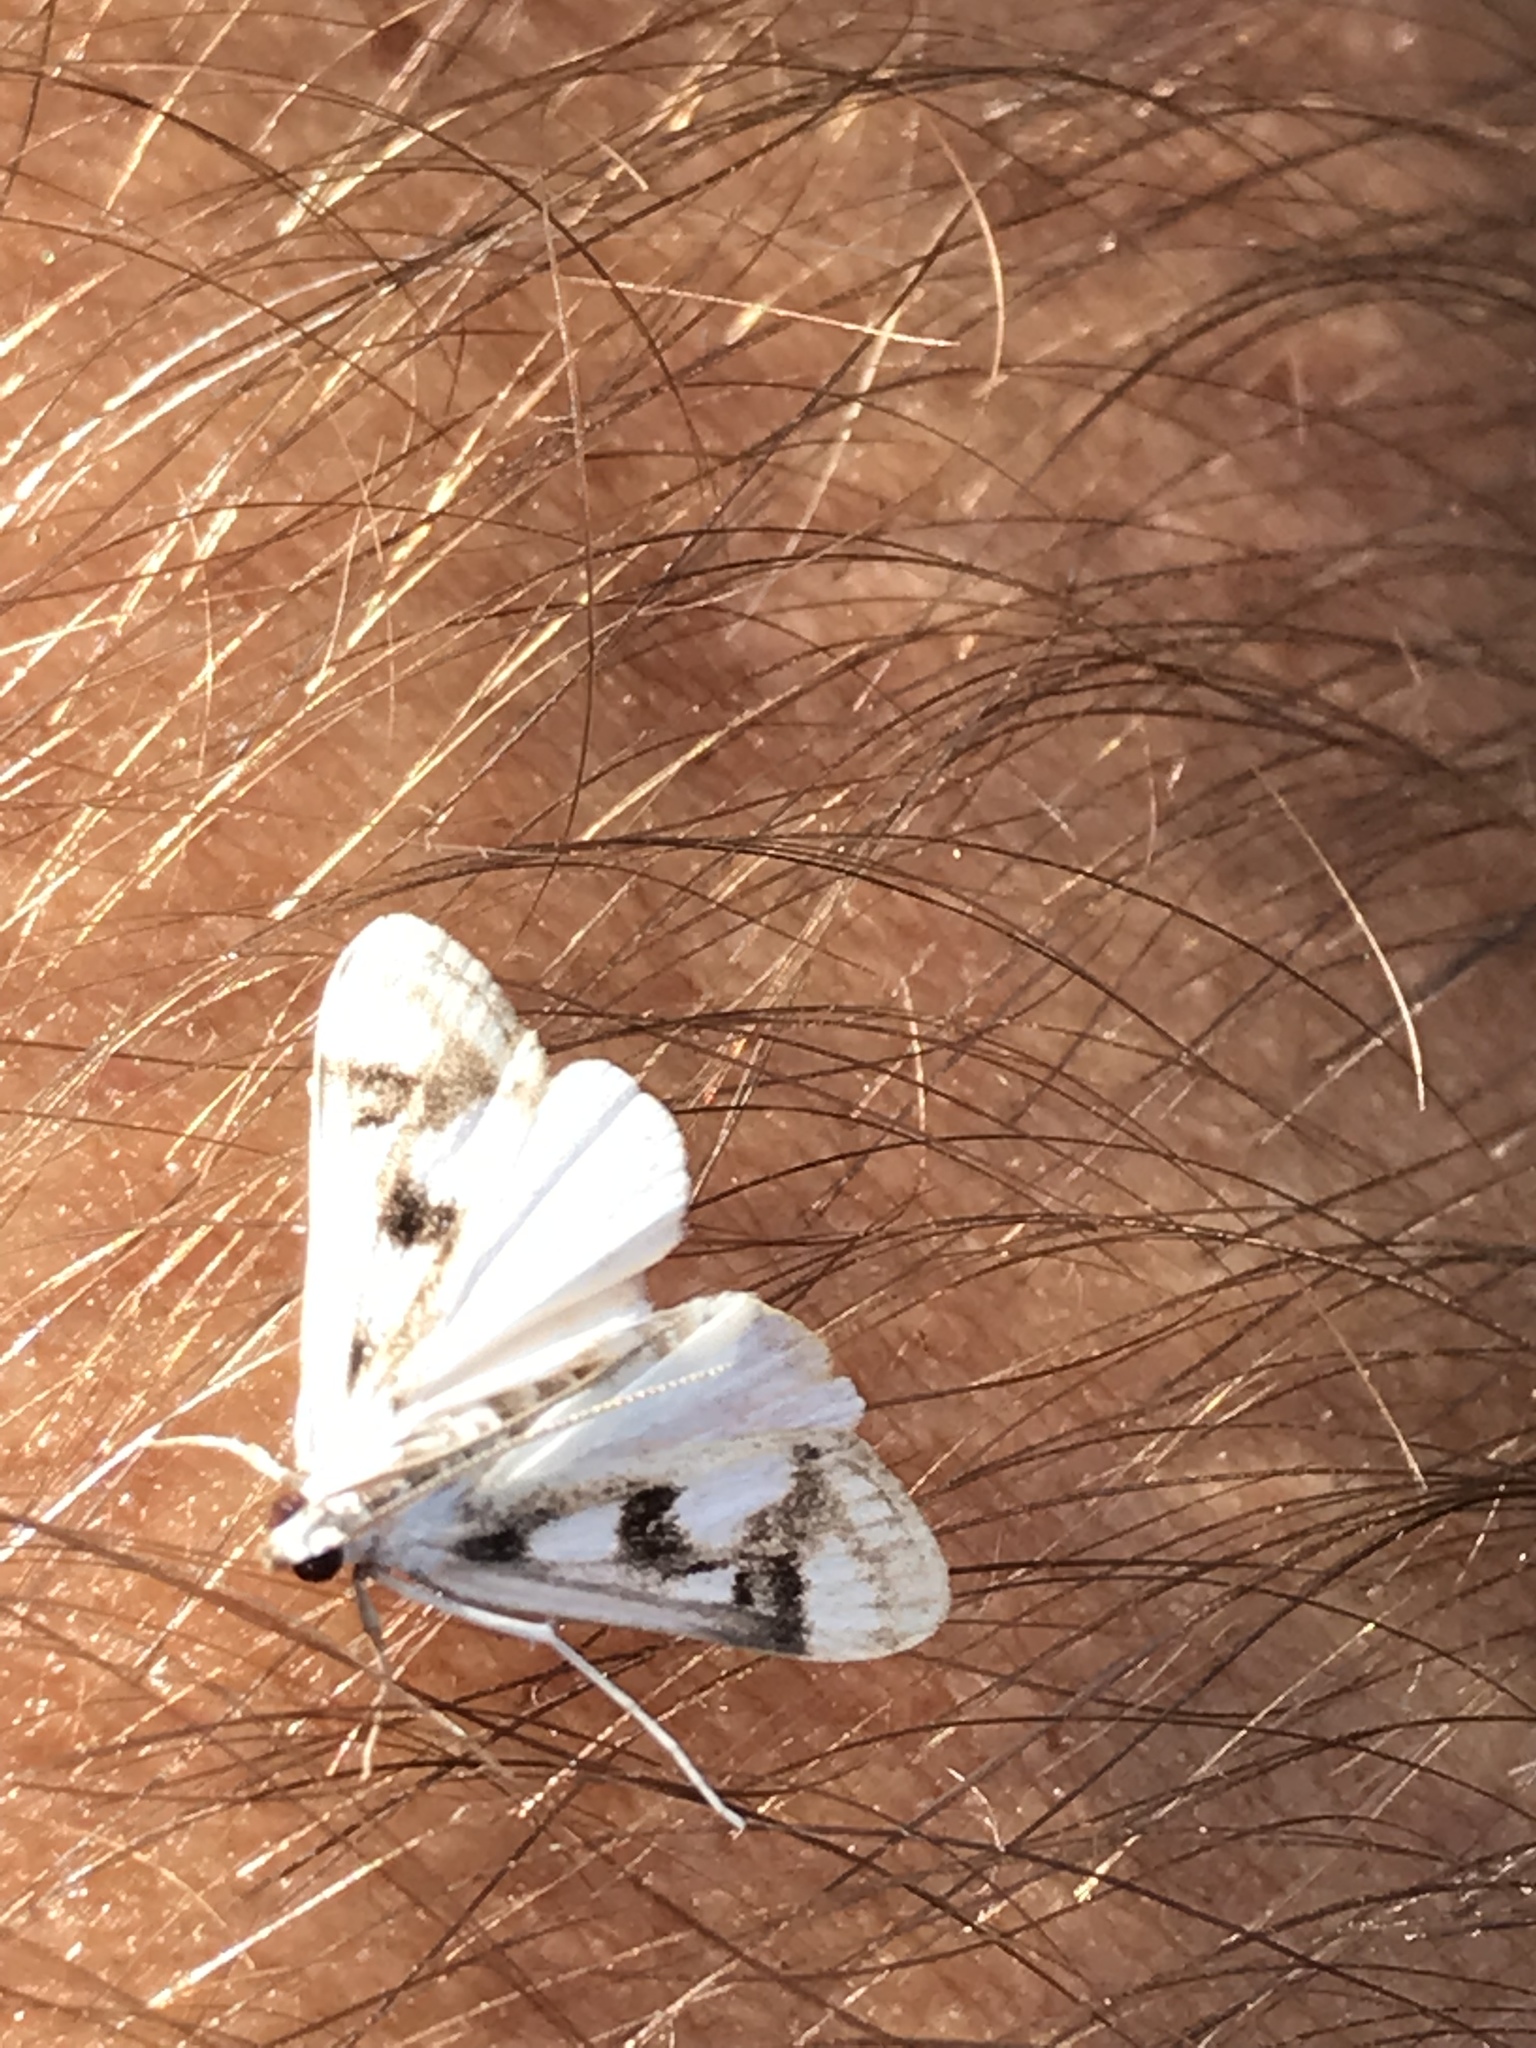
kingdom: Animalia
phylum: Arthropoda
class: Insecta
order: Lepidoptera
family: Crambidae
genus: Parapoynx
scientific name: Parapoynx maculalis
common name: Polymorphic pondweed moth
